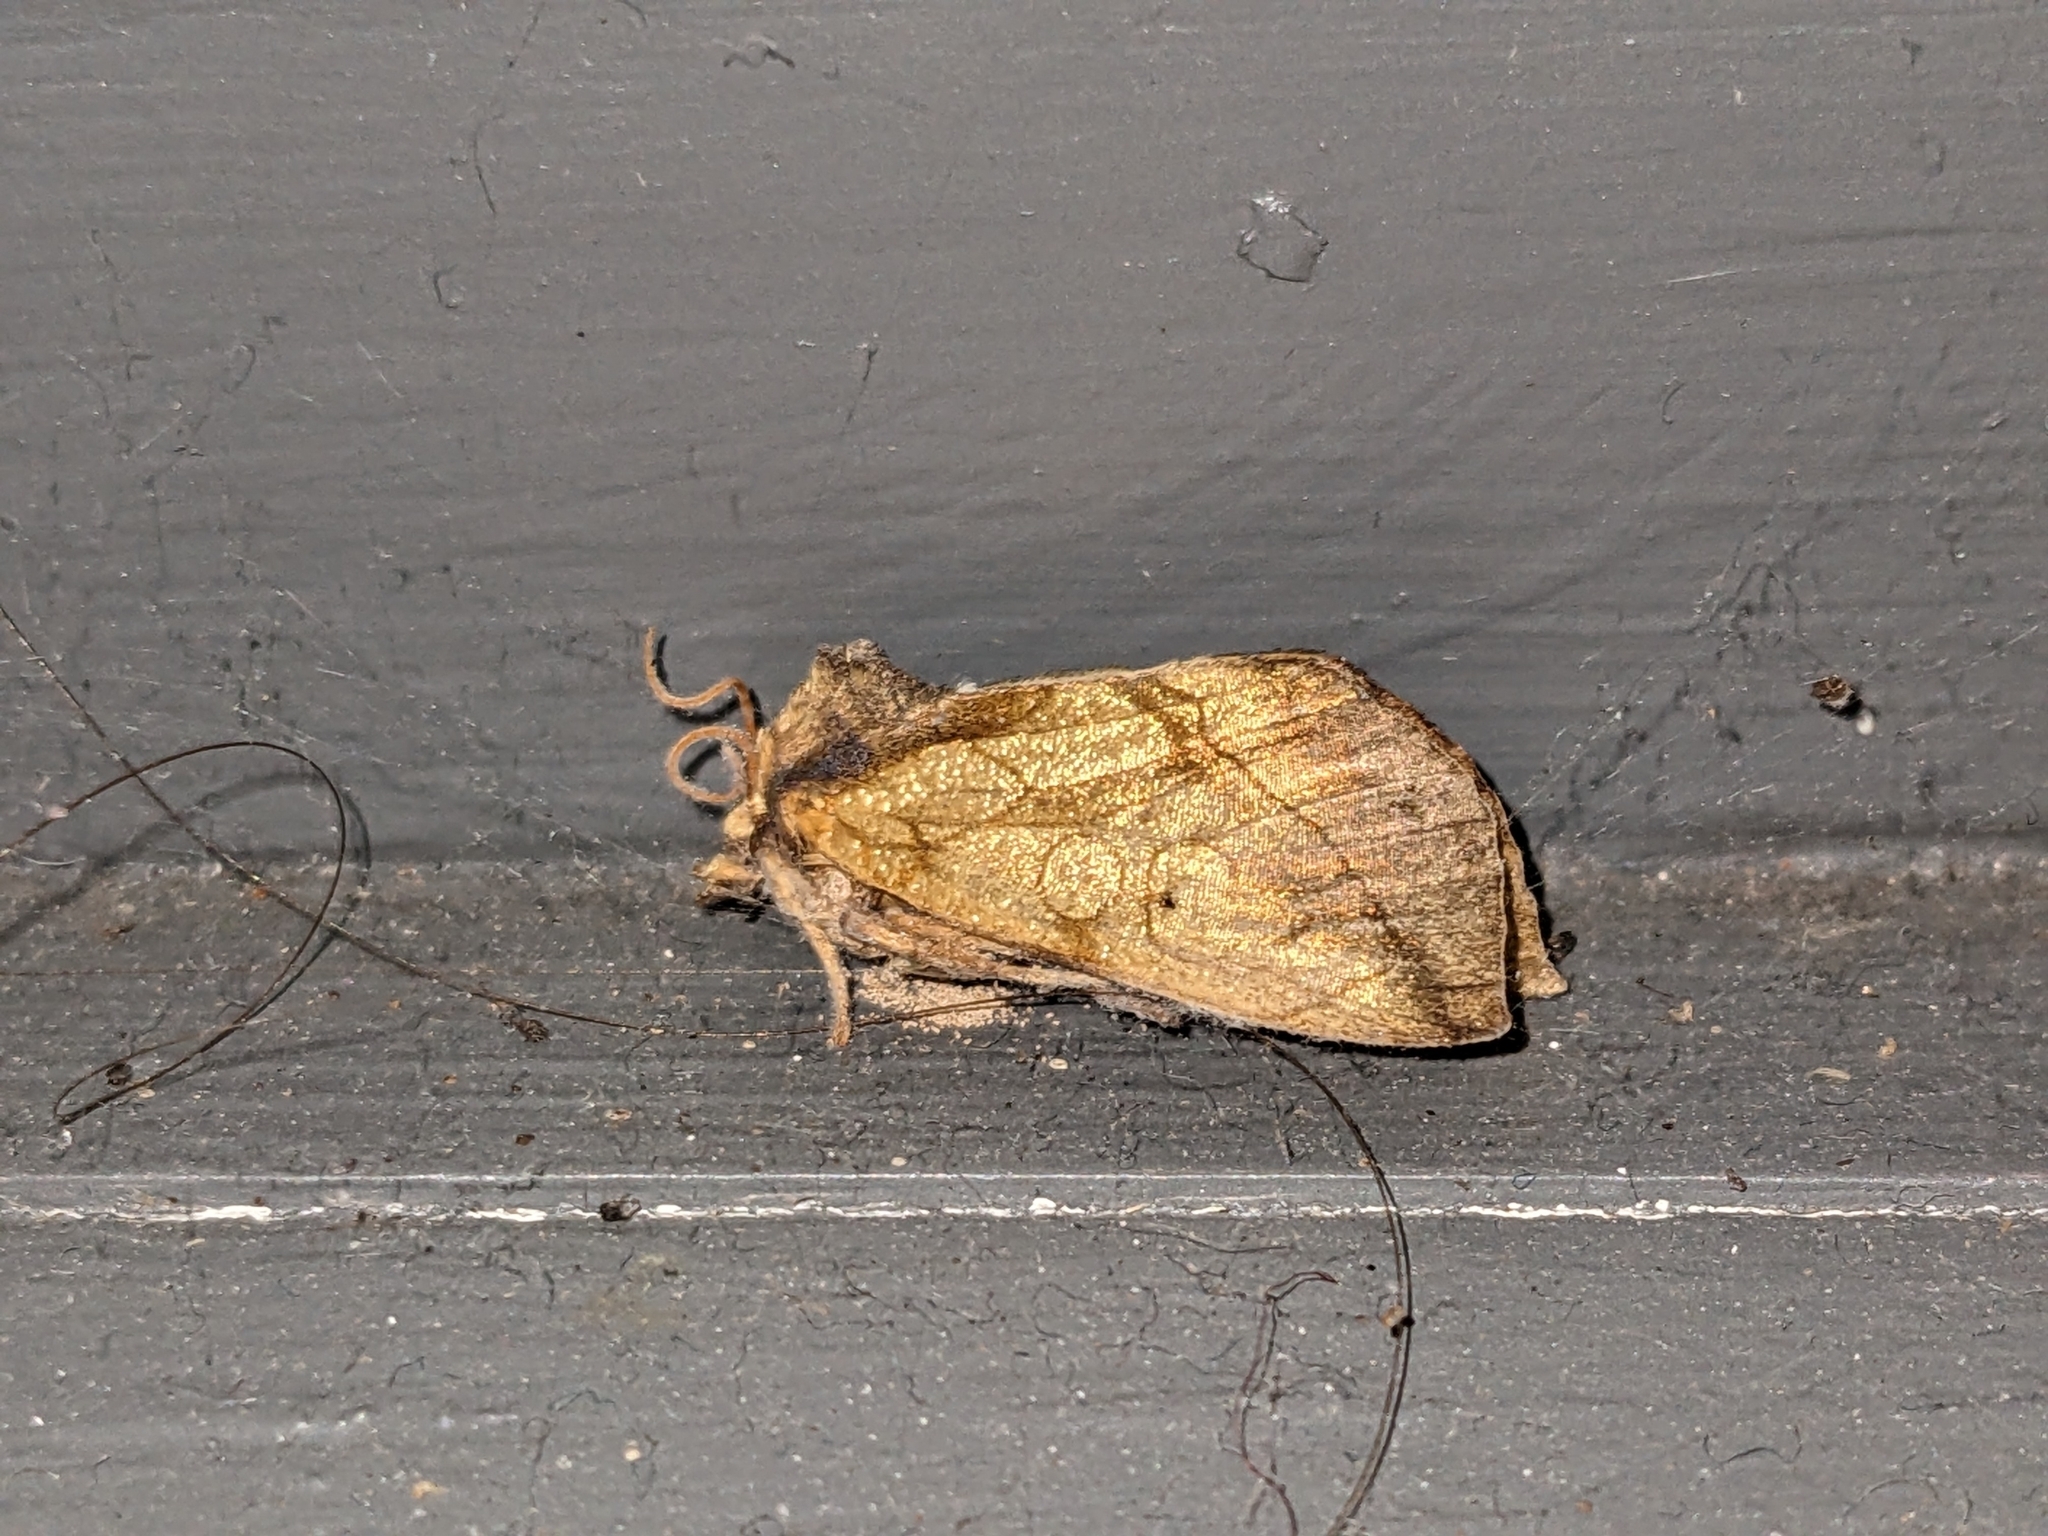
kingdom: Animalia
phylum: Arthropoda
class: Insecta
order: Lepidoptera
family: Noctuidae
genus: Basilodes
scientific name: Basilodes pepita
